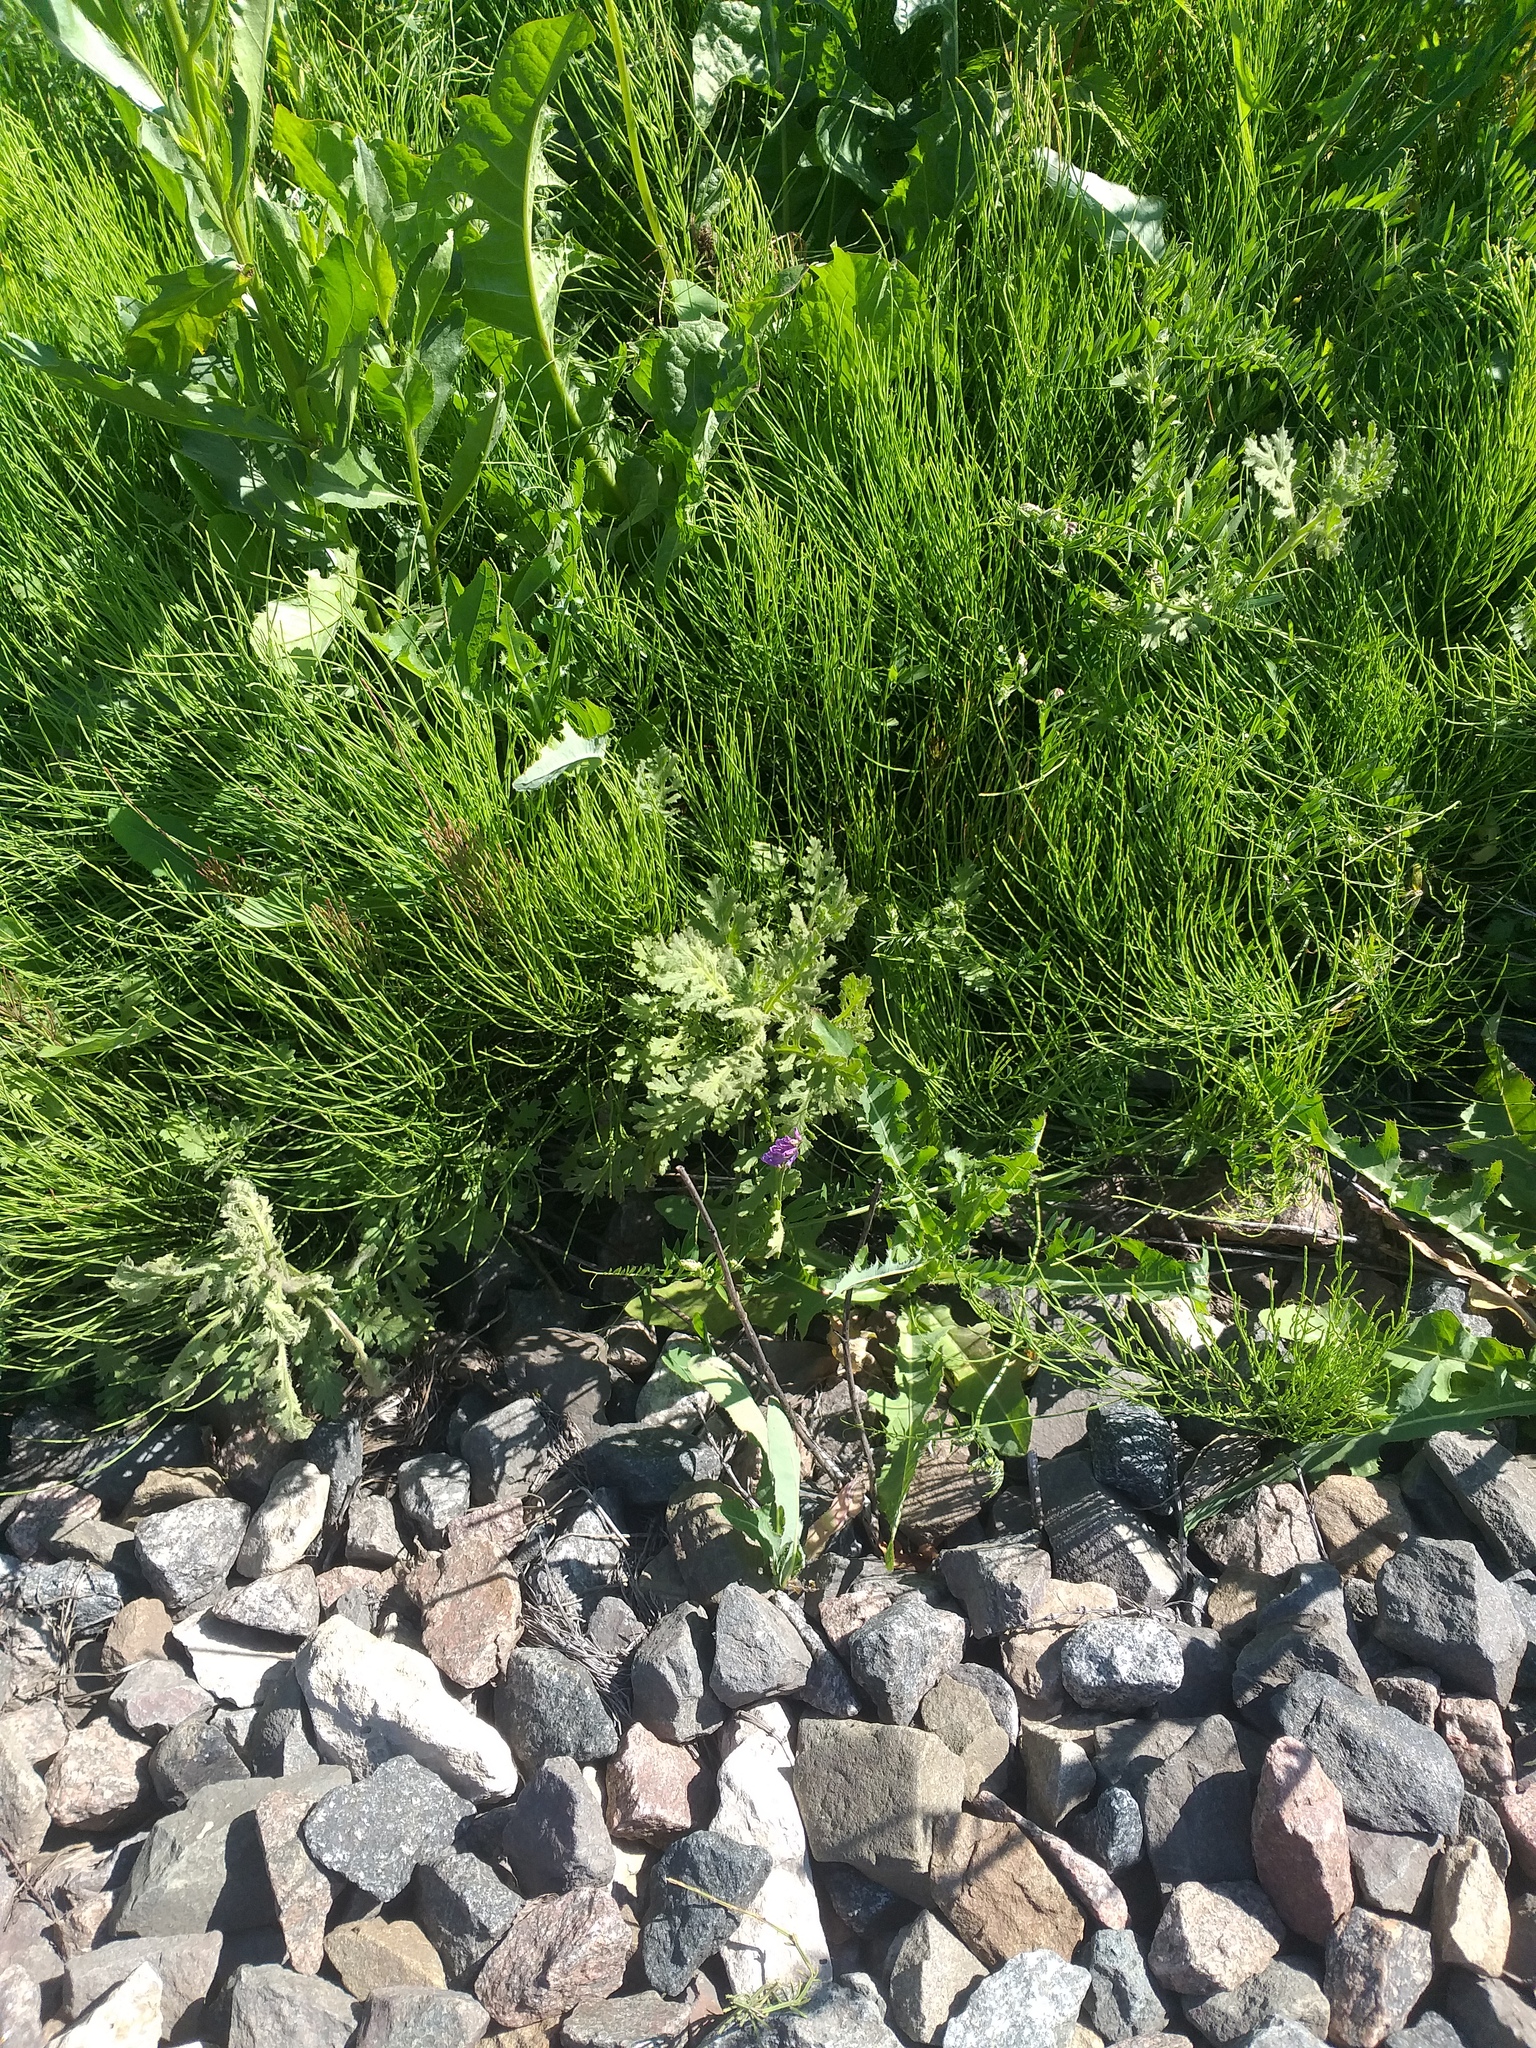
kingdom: Plantae
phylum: Tracheophyta
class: Magnoliopsida
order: Asterales
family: Asteraceae
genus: Senecio
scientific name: Senecio viscosus
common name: Sticky groundsel
